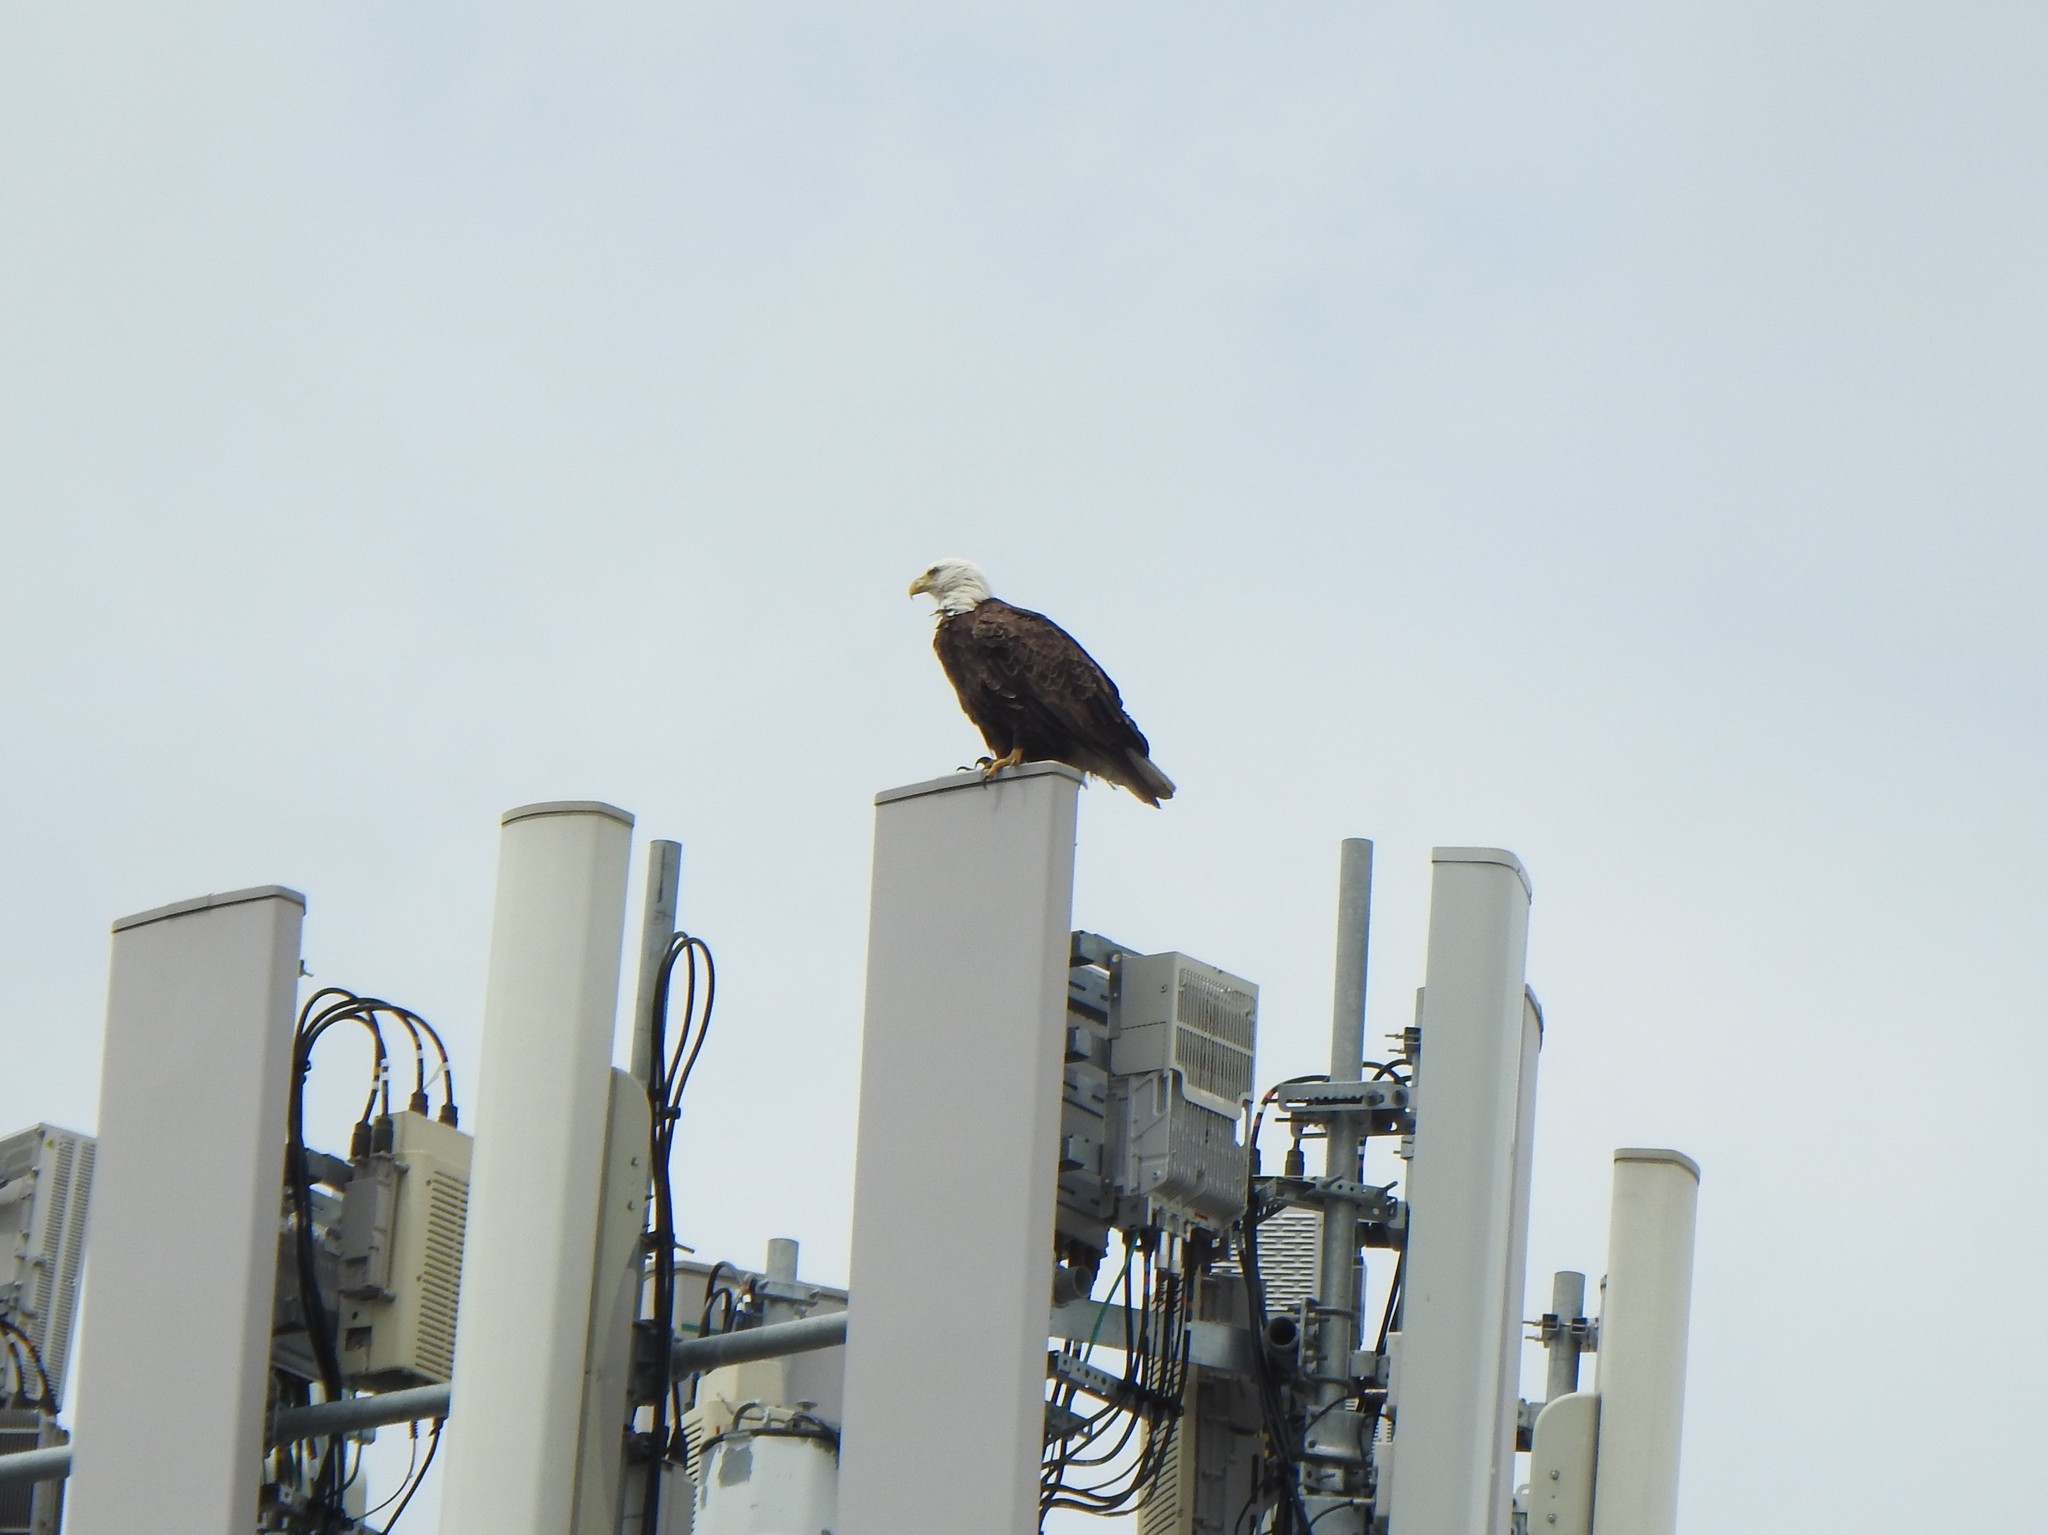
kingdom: Animalia
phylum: Chordata
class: Aves
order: Accipitriformes
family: Accipitridae
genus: Haliaeetus
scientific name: Haliaeetus leucocephalus
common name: Bald eagle
